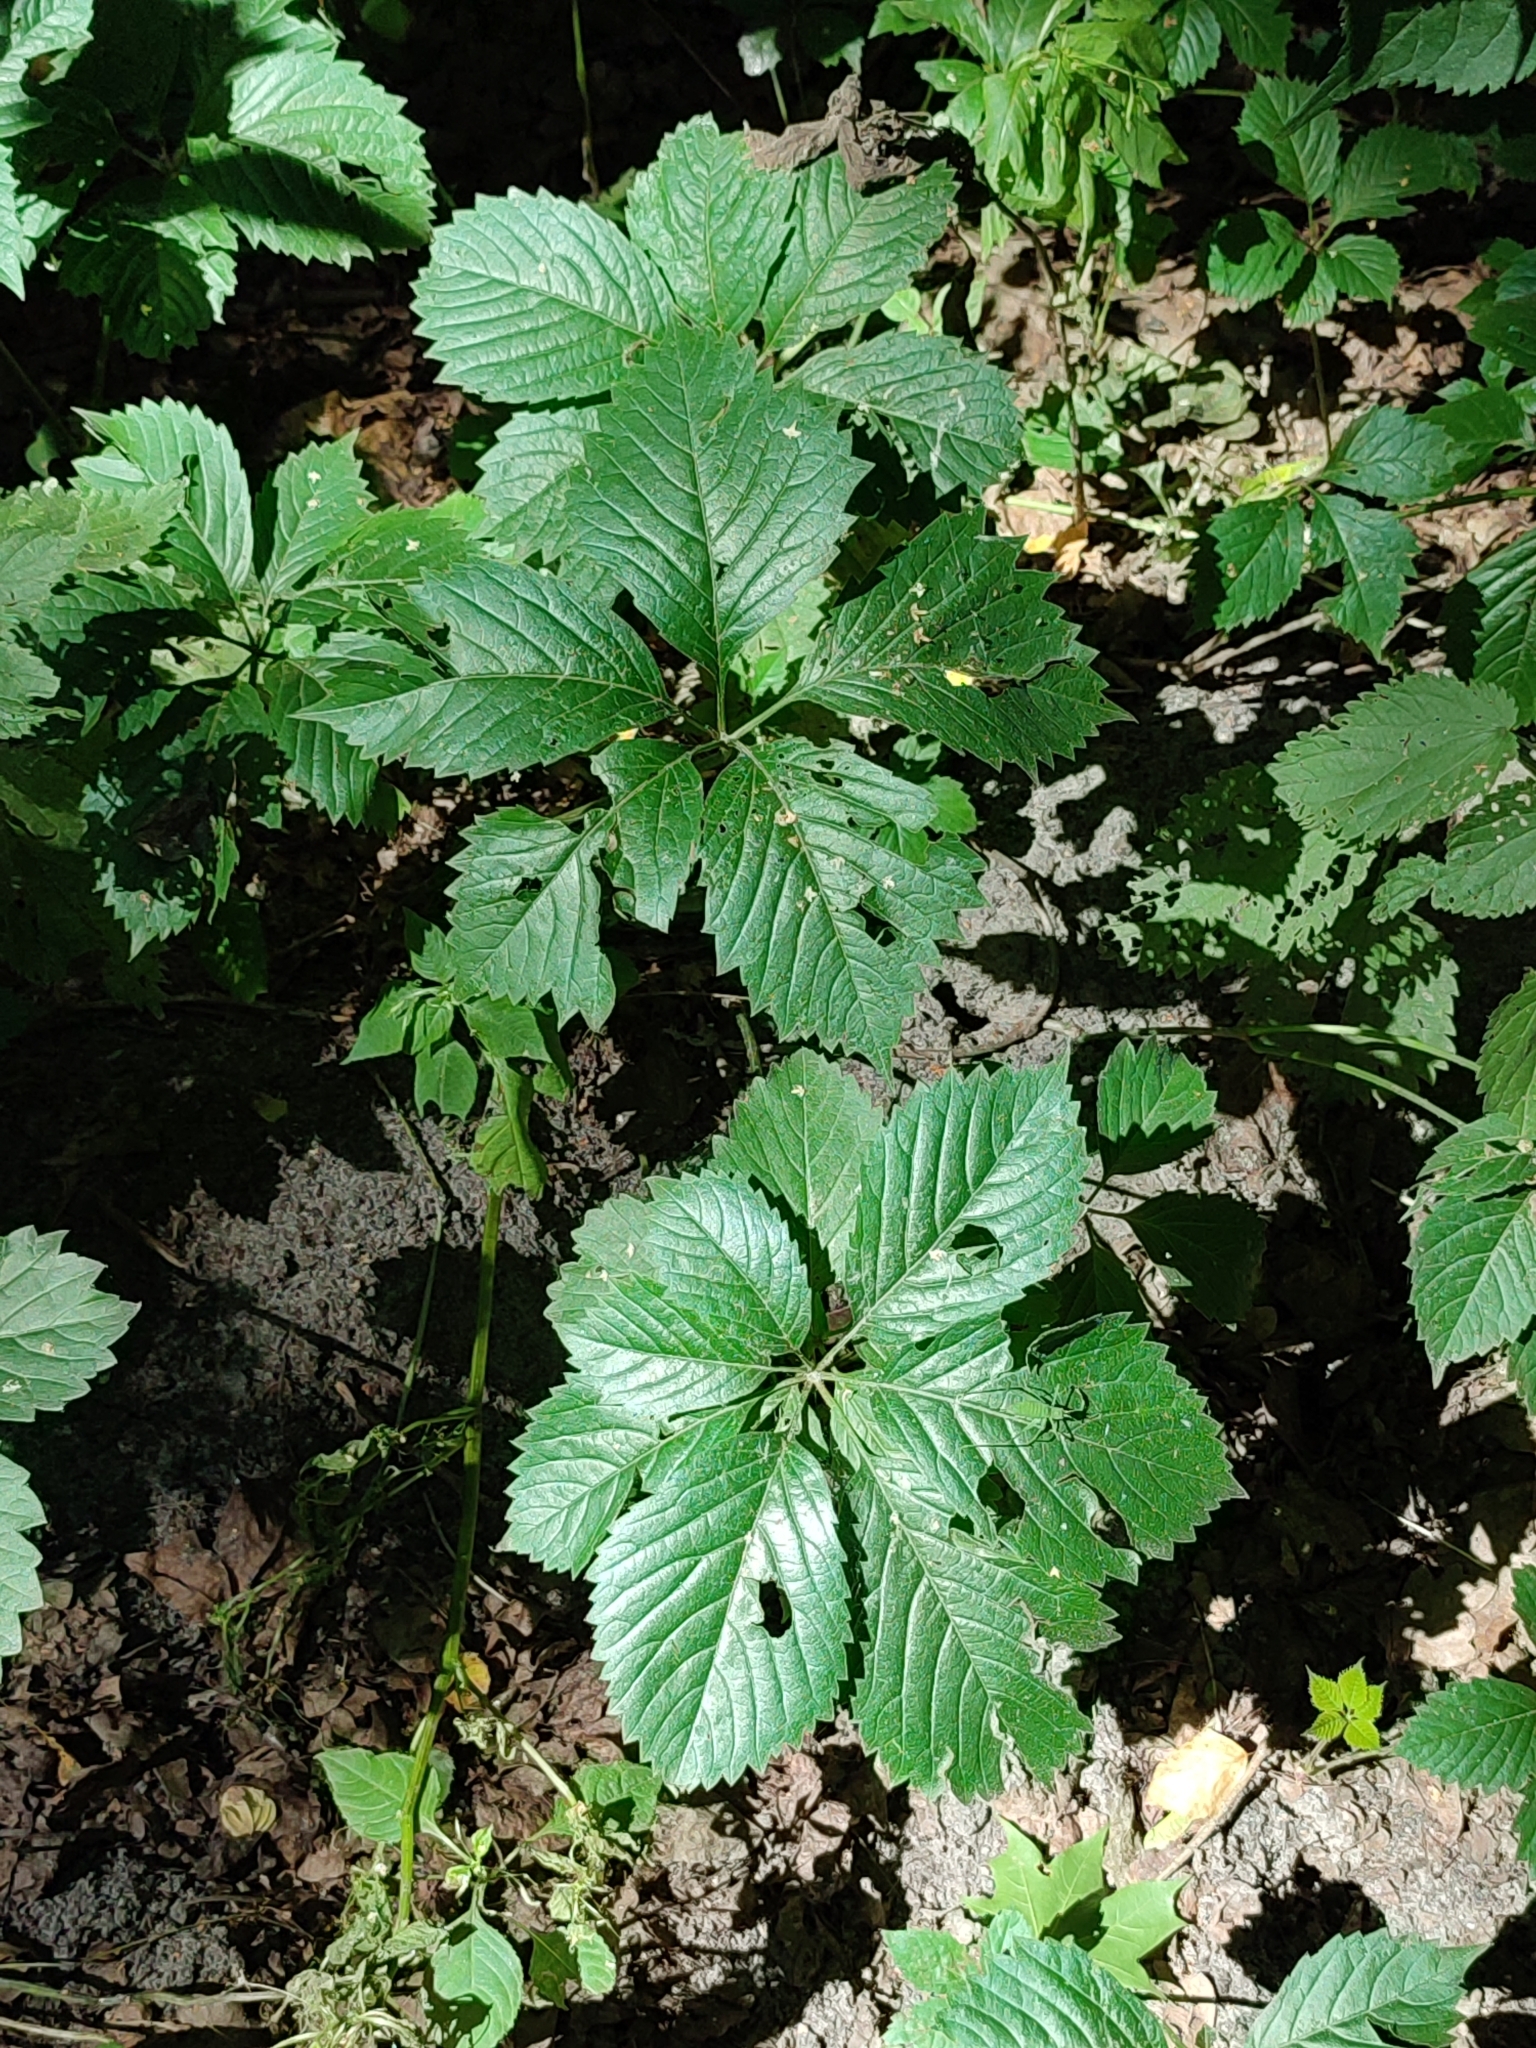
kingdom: Plantae
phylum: Tracheophyta
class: Magnoliopsida
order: Vitales
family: Vitaceae
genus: Parthenocissus
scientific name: Parthenocissus inserta
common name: False virginia-creeper
